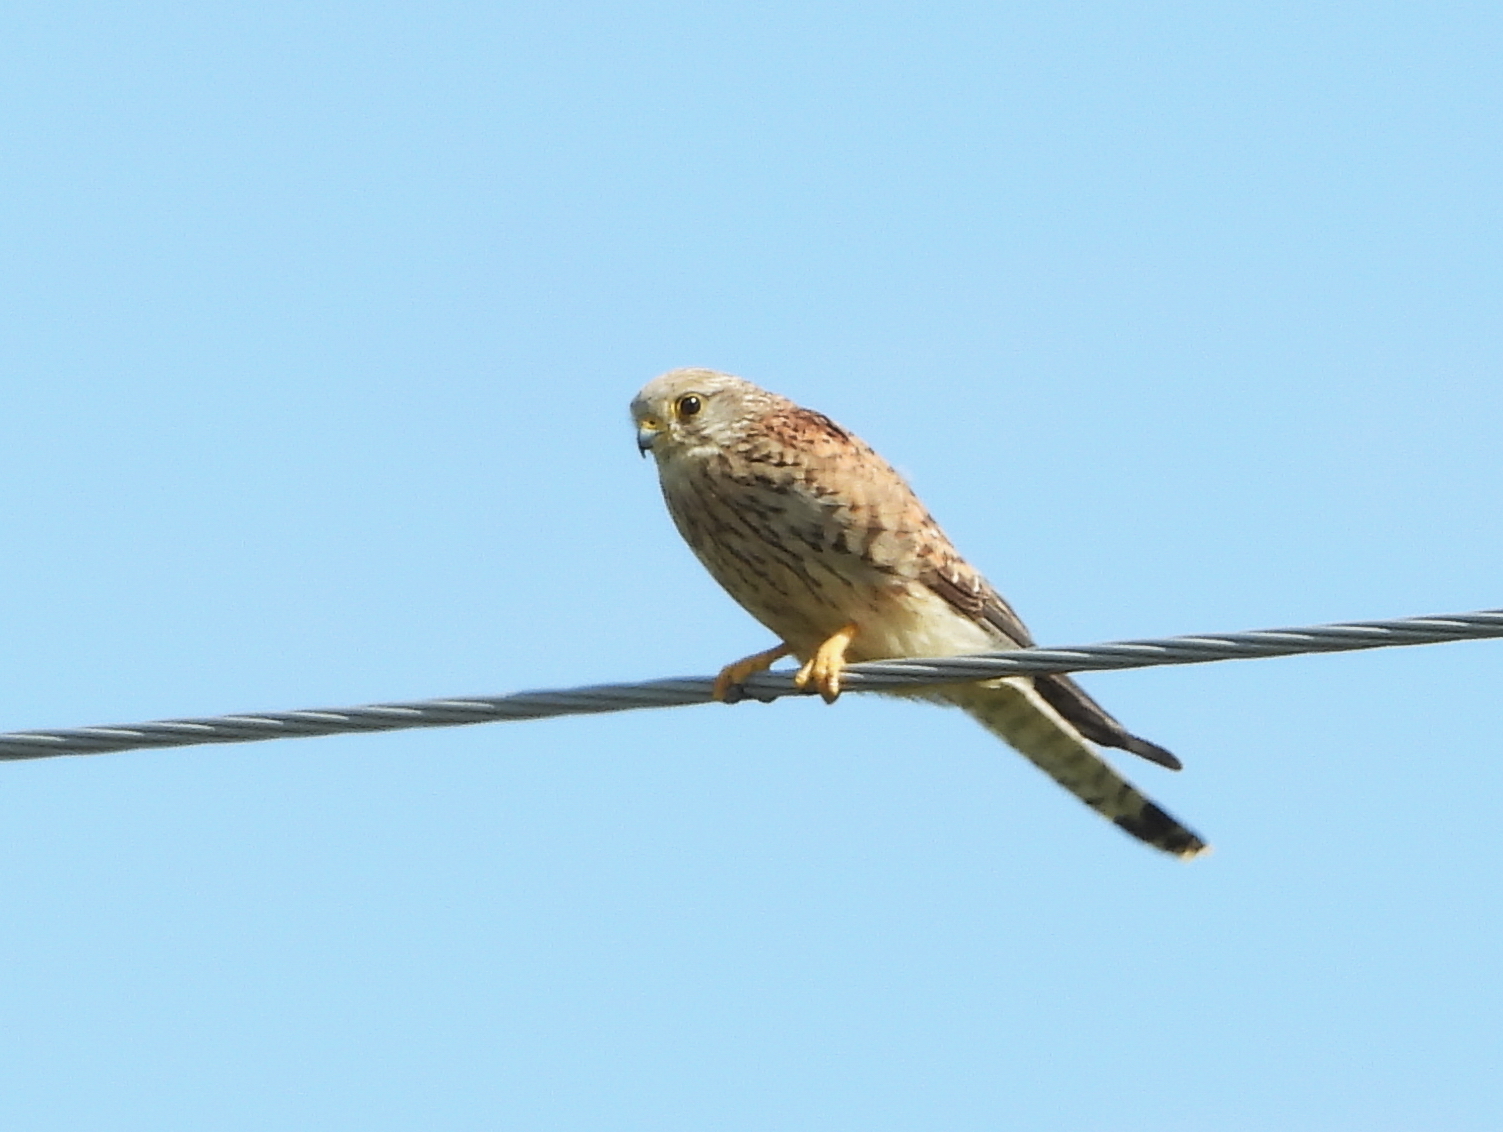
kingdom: Animalia
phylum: Chordata
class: Aves
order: Falconiformes
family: Falconidae
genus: Falco
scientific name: Falco tinnunculus
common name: Common kestrel
